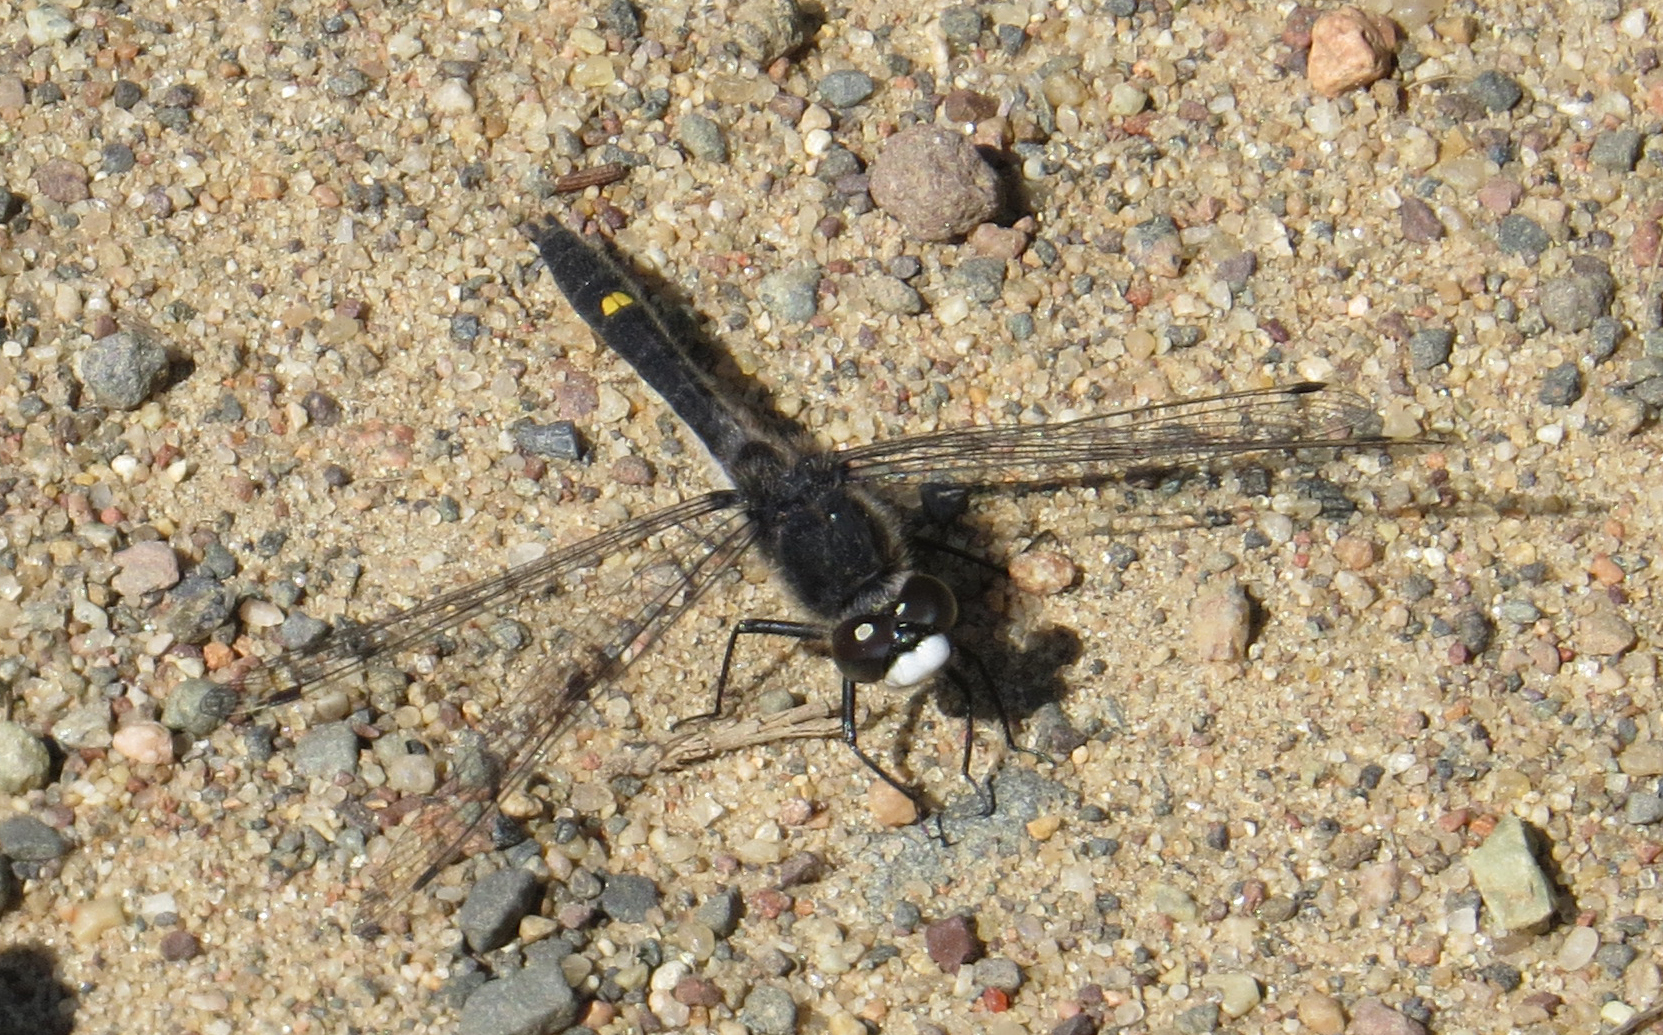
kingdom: Animalia
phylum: Arthropoda
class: Insecta
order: Odonata
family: Libellulidae
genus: Leucorrhinia
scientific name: Leucorrhinia intacta
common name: Dot-tailed whiteface
